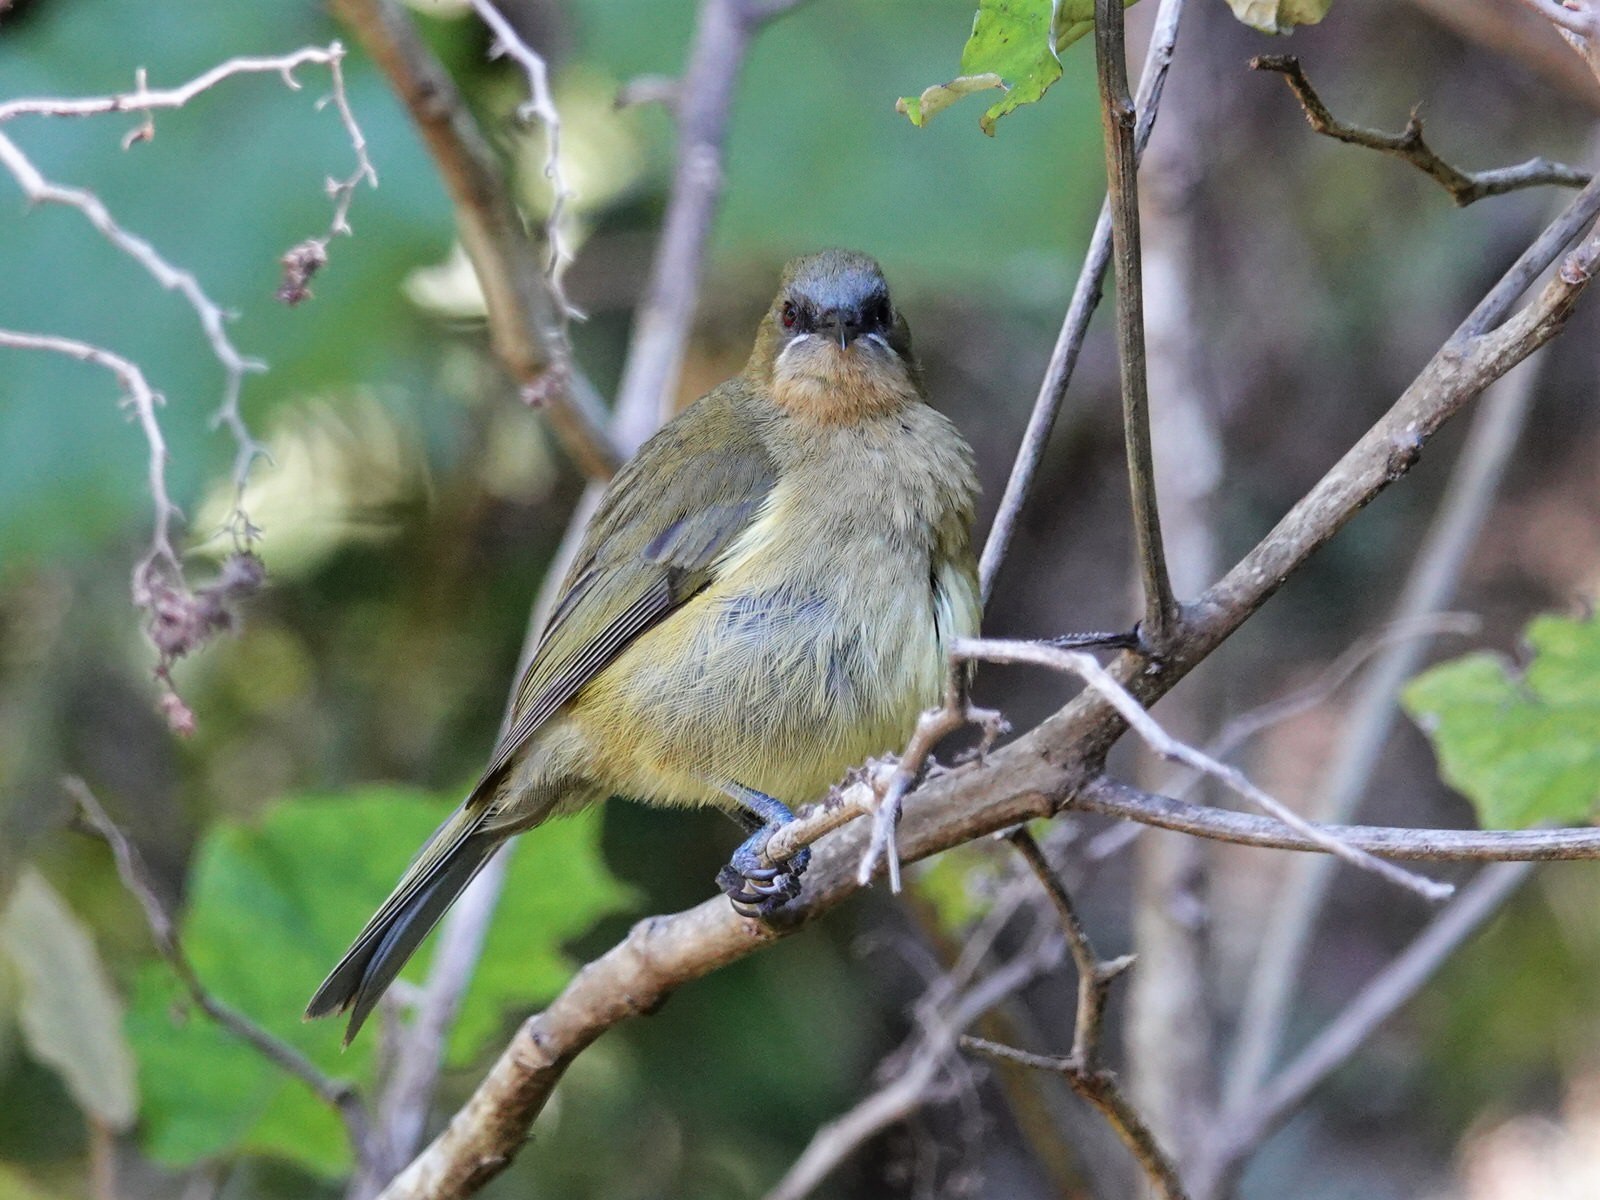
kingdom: Animalia
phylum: Chordata
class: Aves
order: Passeriformes
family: Meliphagidae
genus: Anthornis
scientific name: Anthornis melanura
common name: New zealand bellbird
